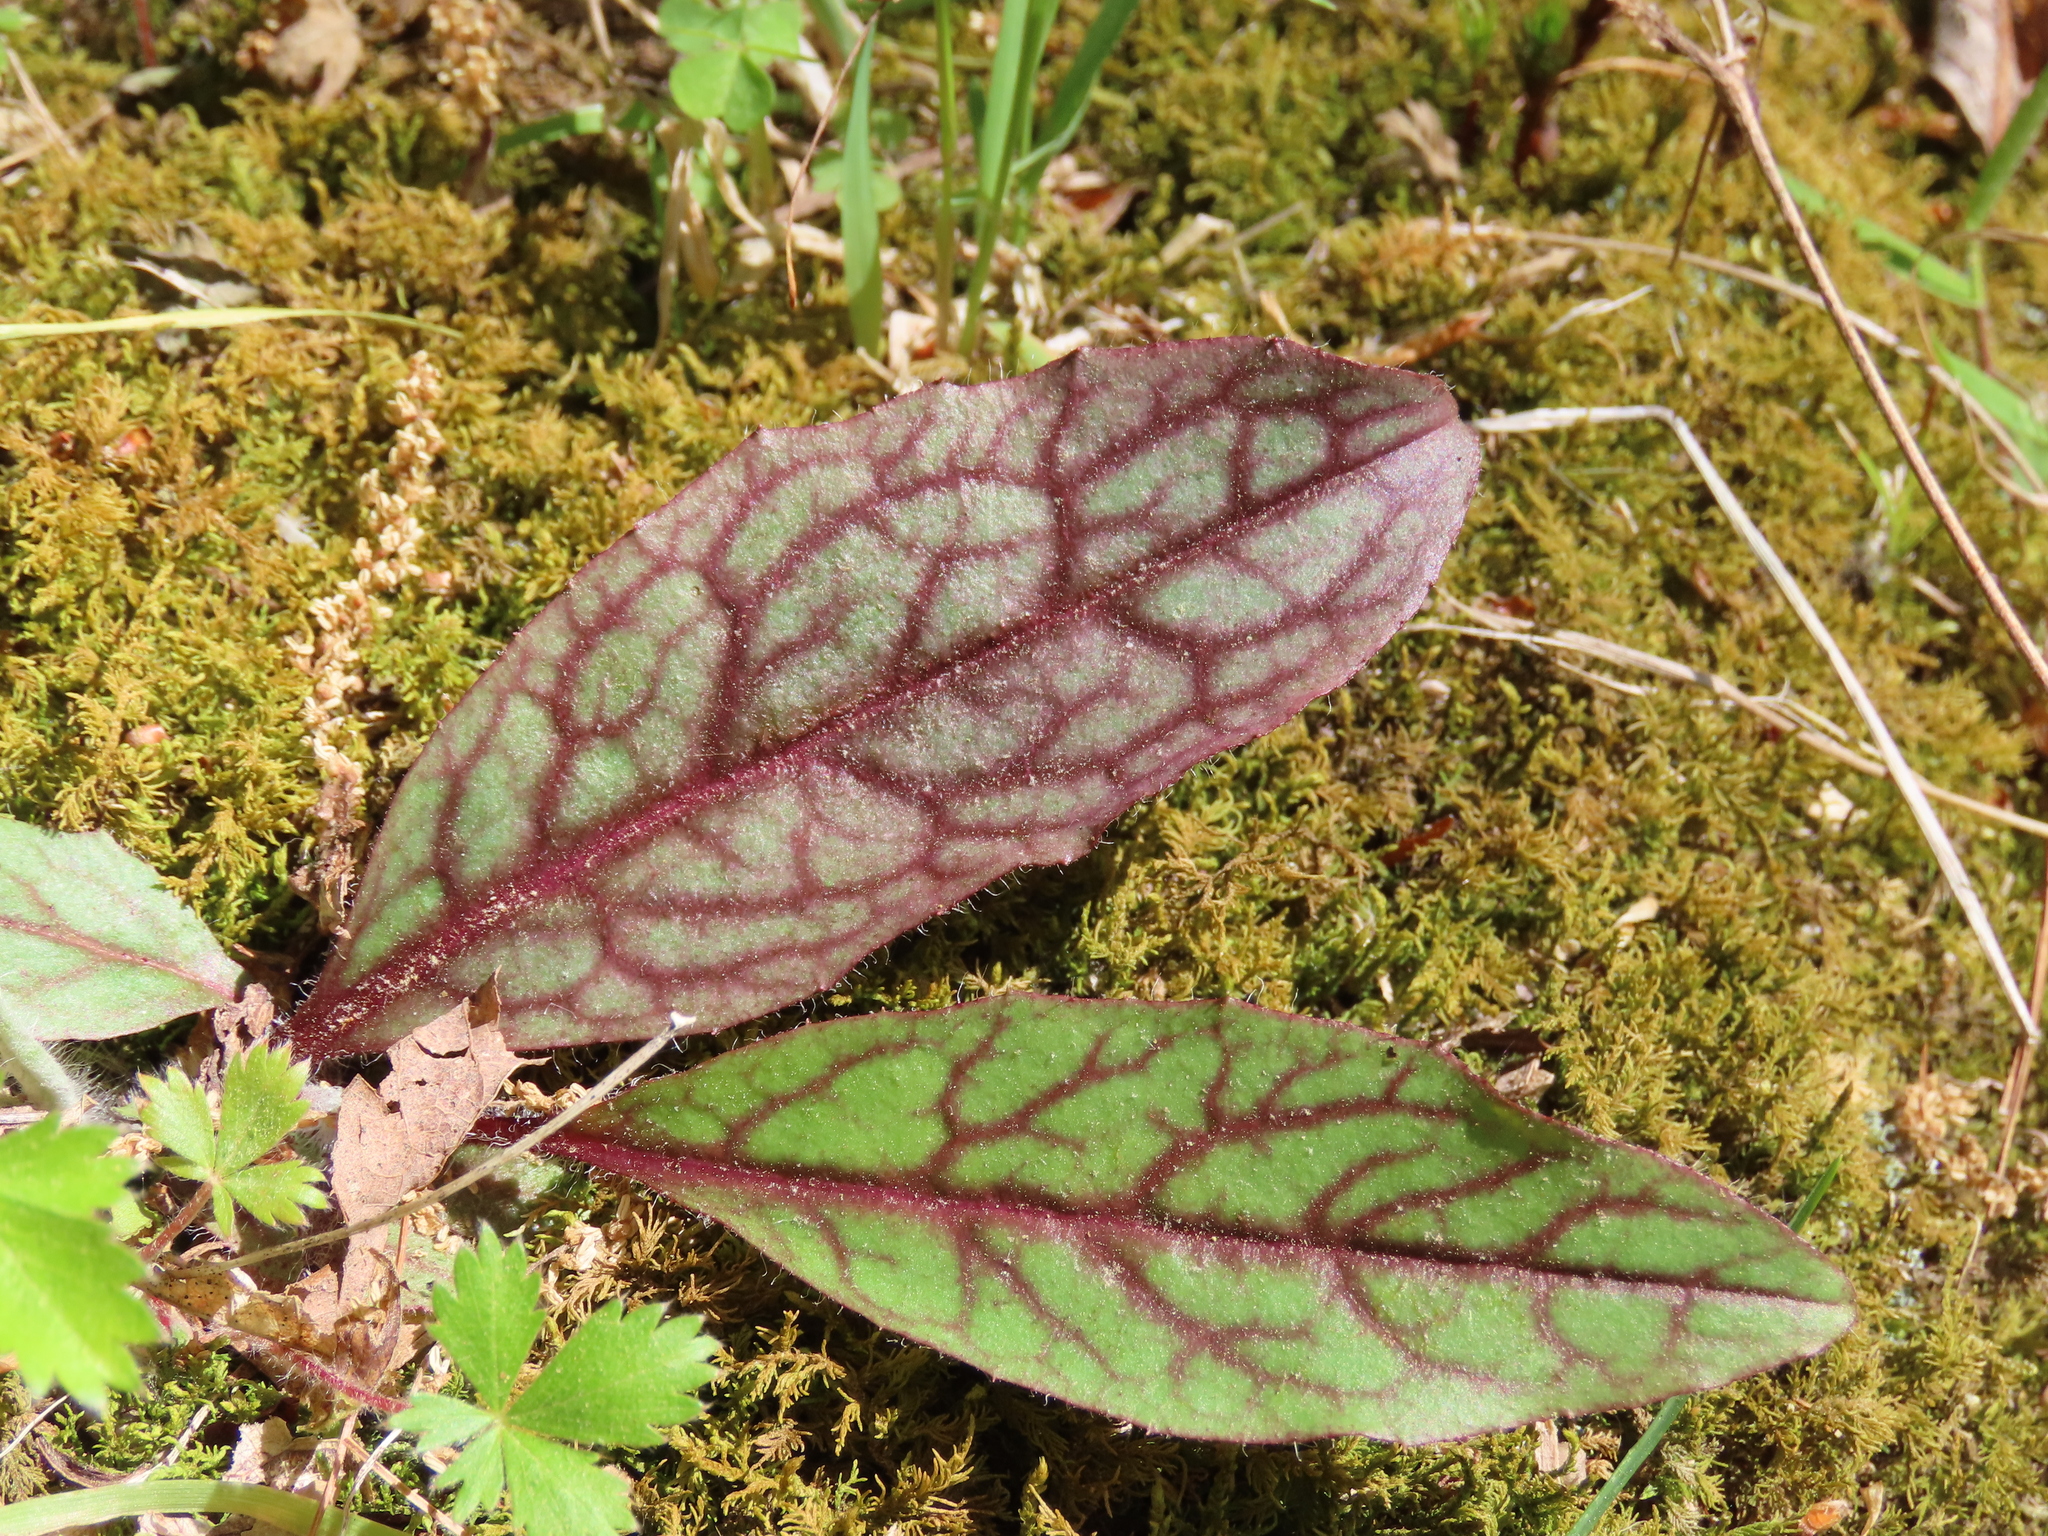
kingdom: Plantae
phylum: Tracheophyta
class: Magnoliopsida
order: Asterales
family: Asteraceae
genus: Hieracium
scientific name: Hieracium venosum
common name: Rattlesnake hawkweed
